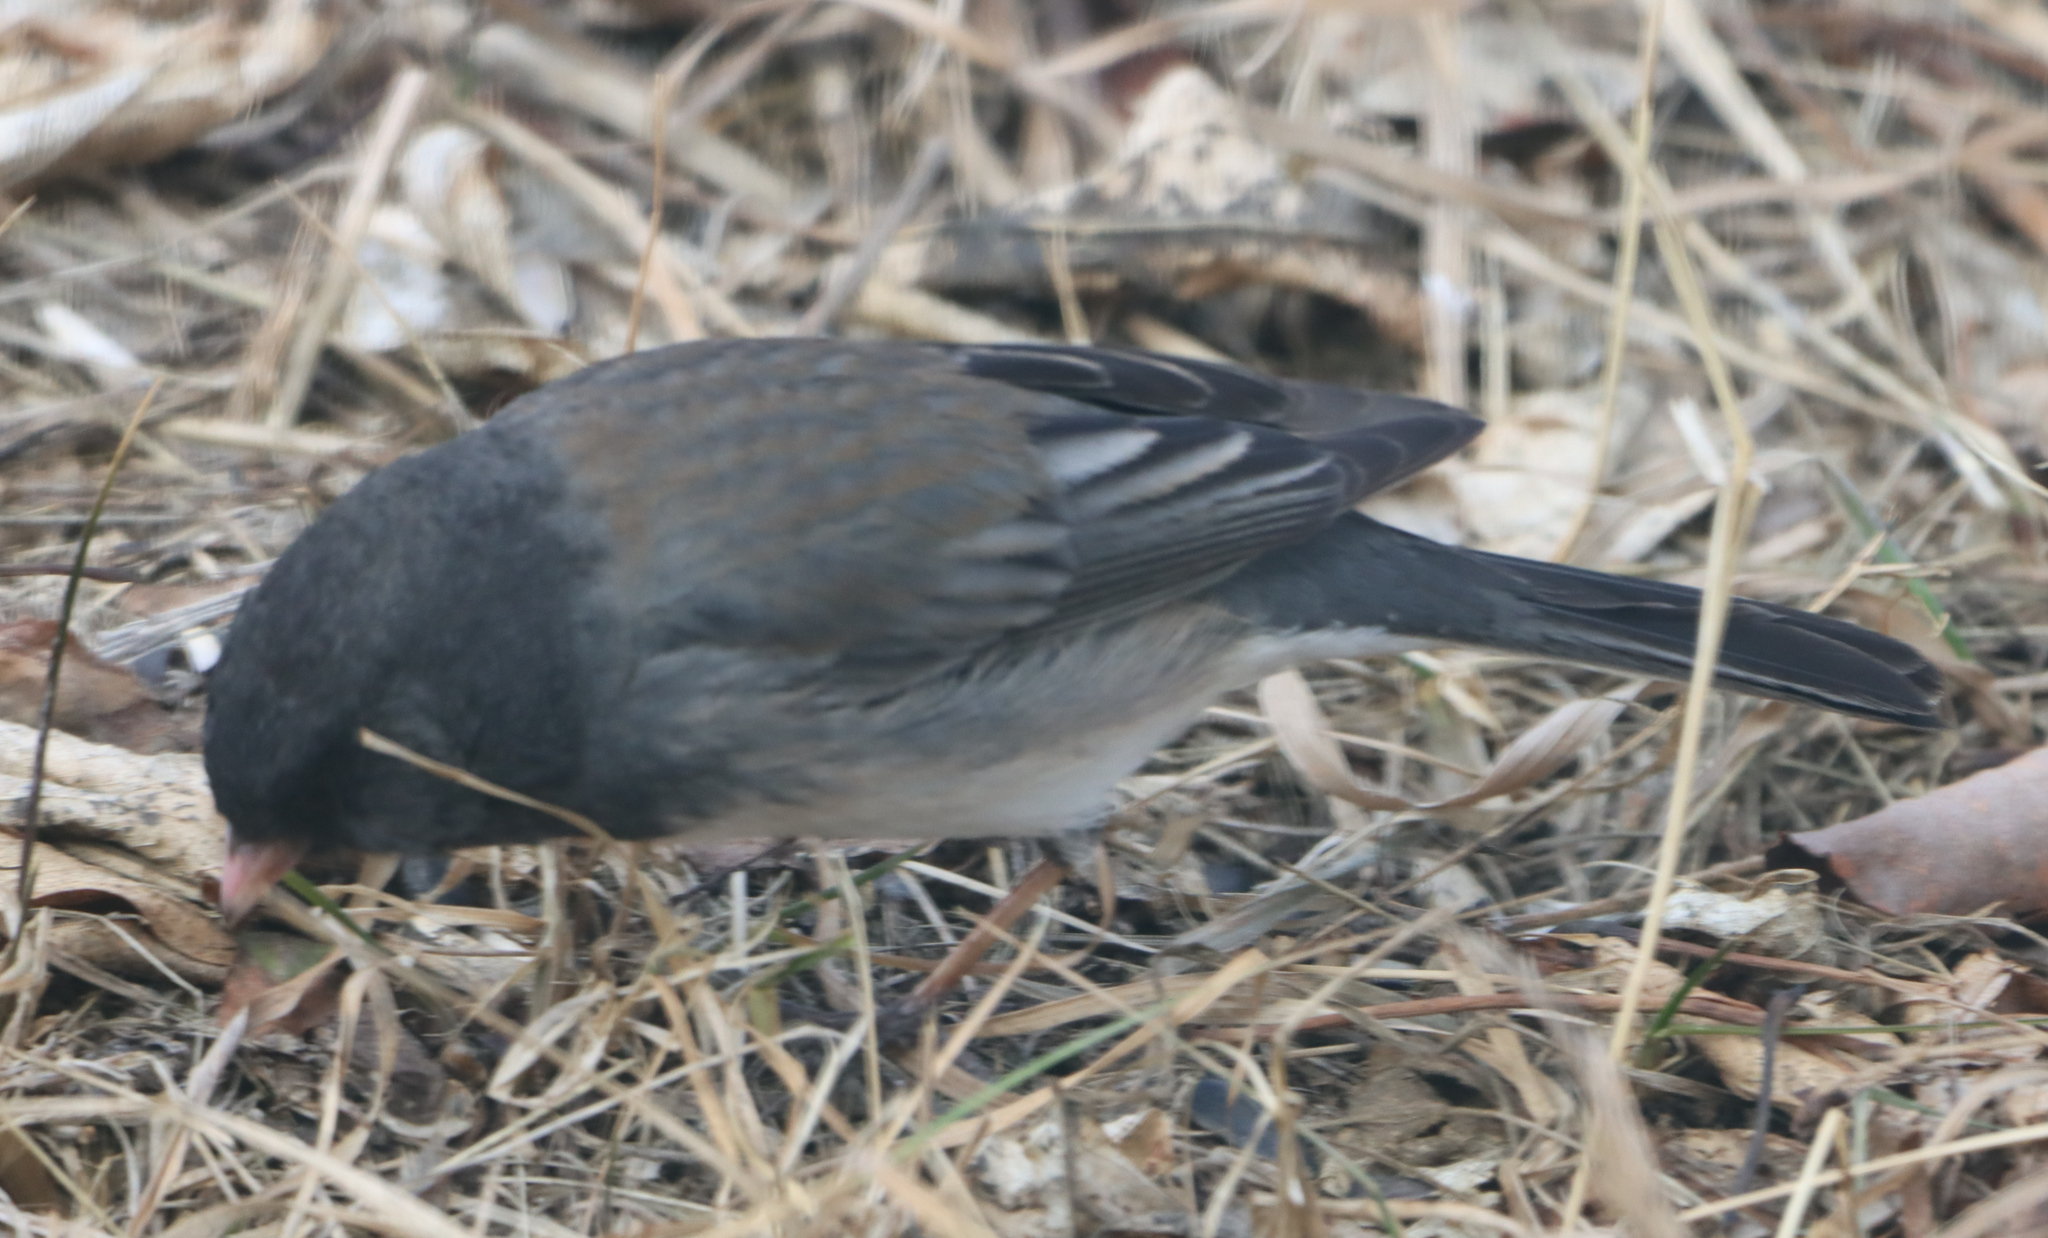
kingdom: Animalia
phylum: Chordata
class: Aves
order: Passeriformes
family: Passerellidae
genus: Junco
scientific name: Junco hyemalis
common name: Dark-eyed junco
